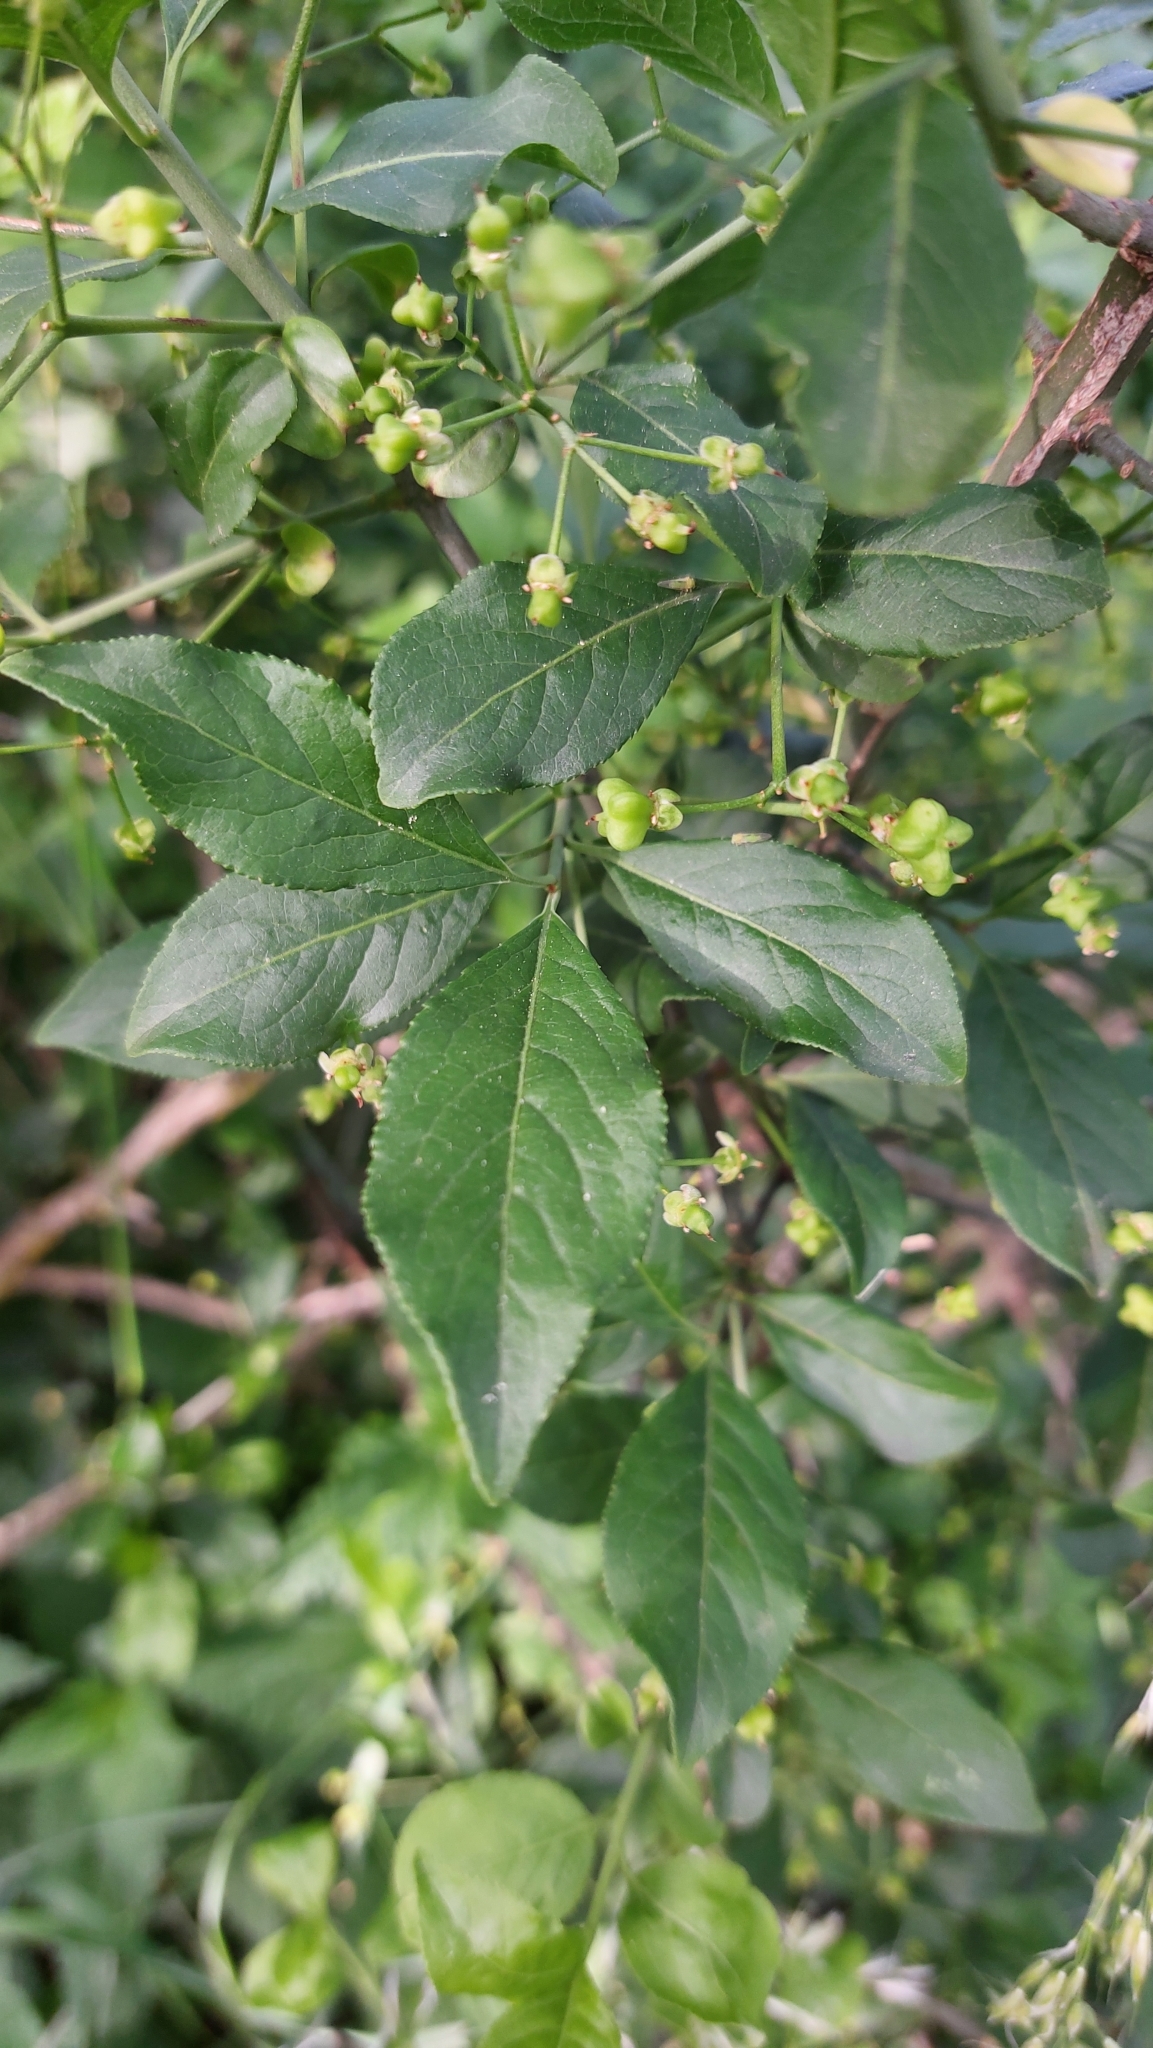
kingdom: Plantae
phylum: Tracheophyta
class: Magnoliopsida
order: Celastrales
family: Celastraceae
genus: Euonymus
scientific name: Euonymus europaeus
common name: Spindle
